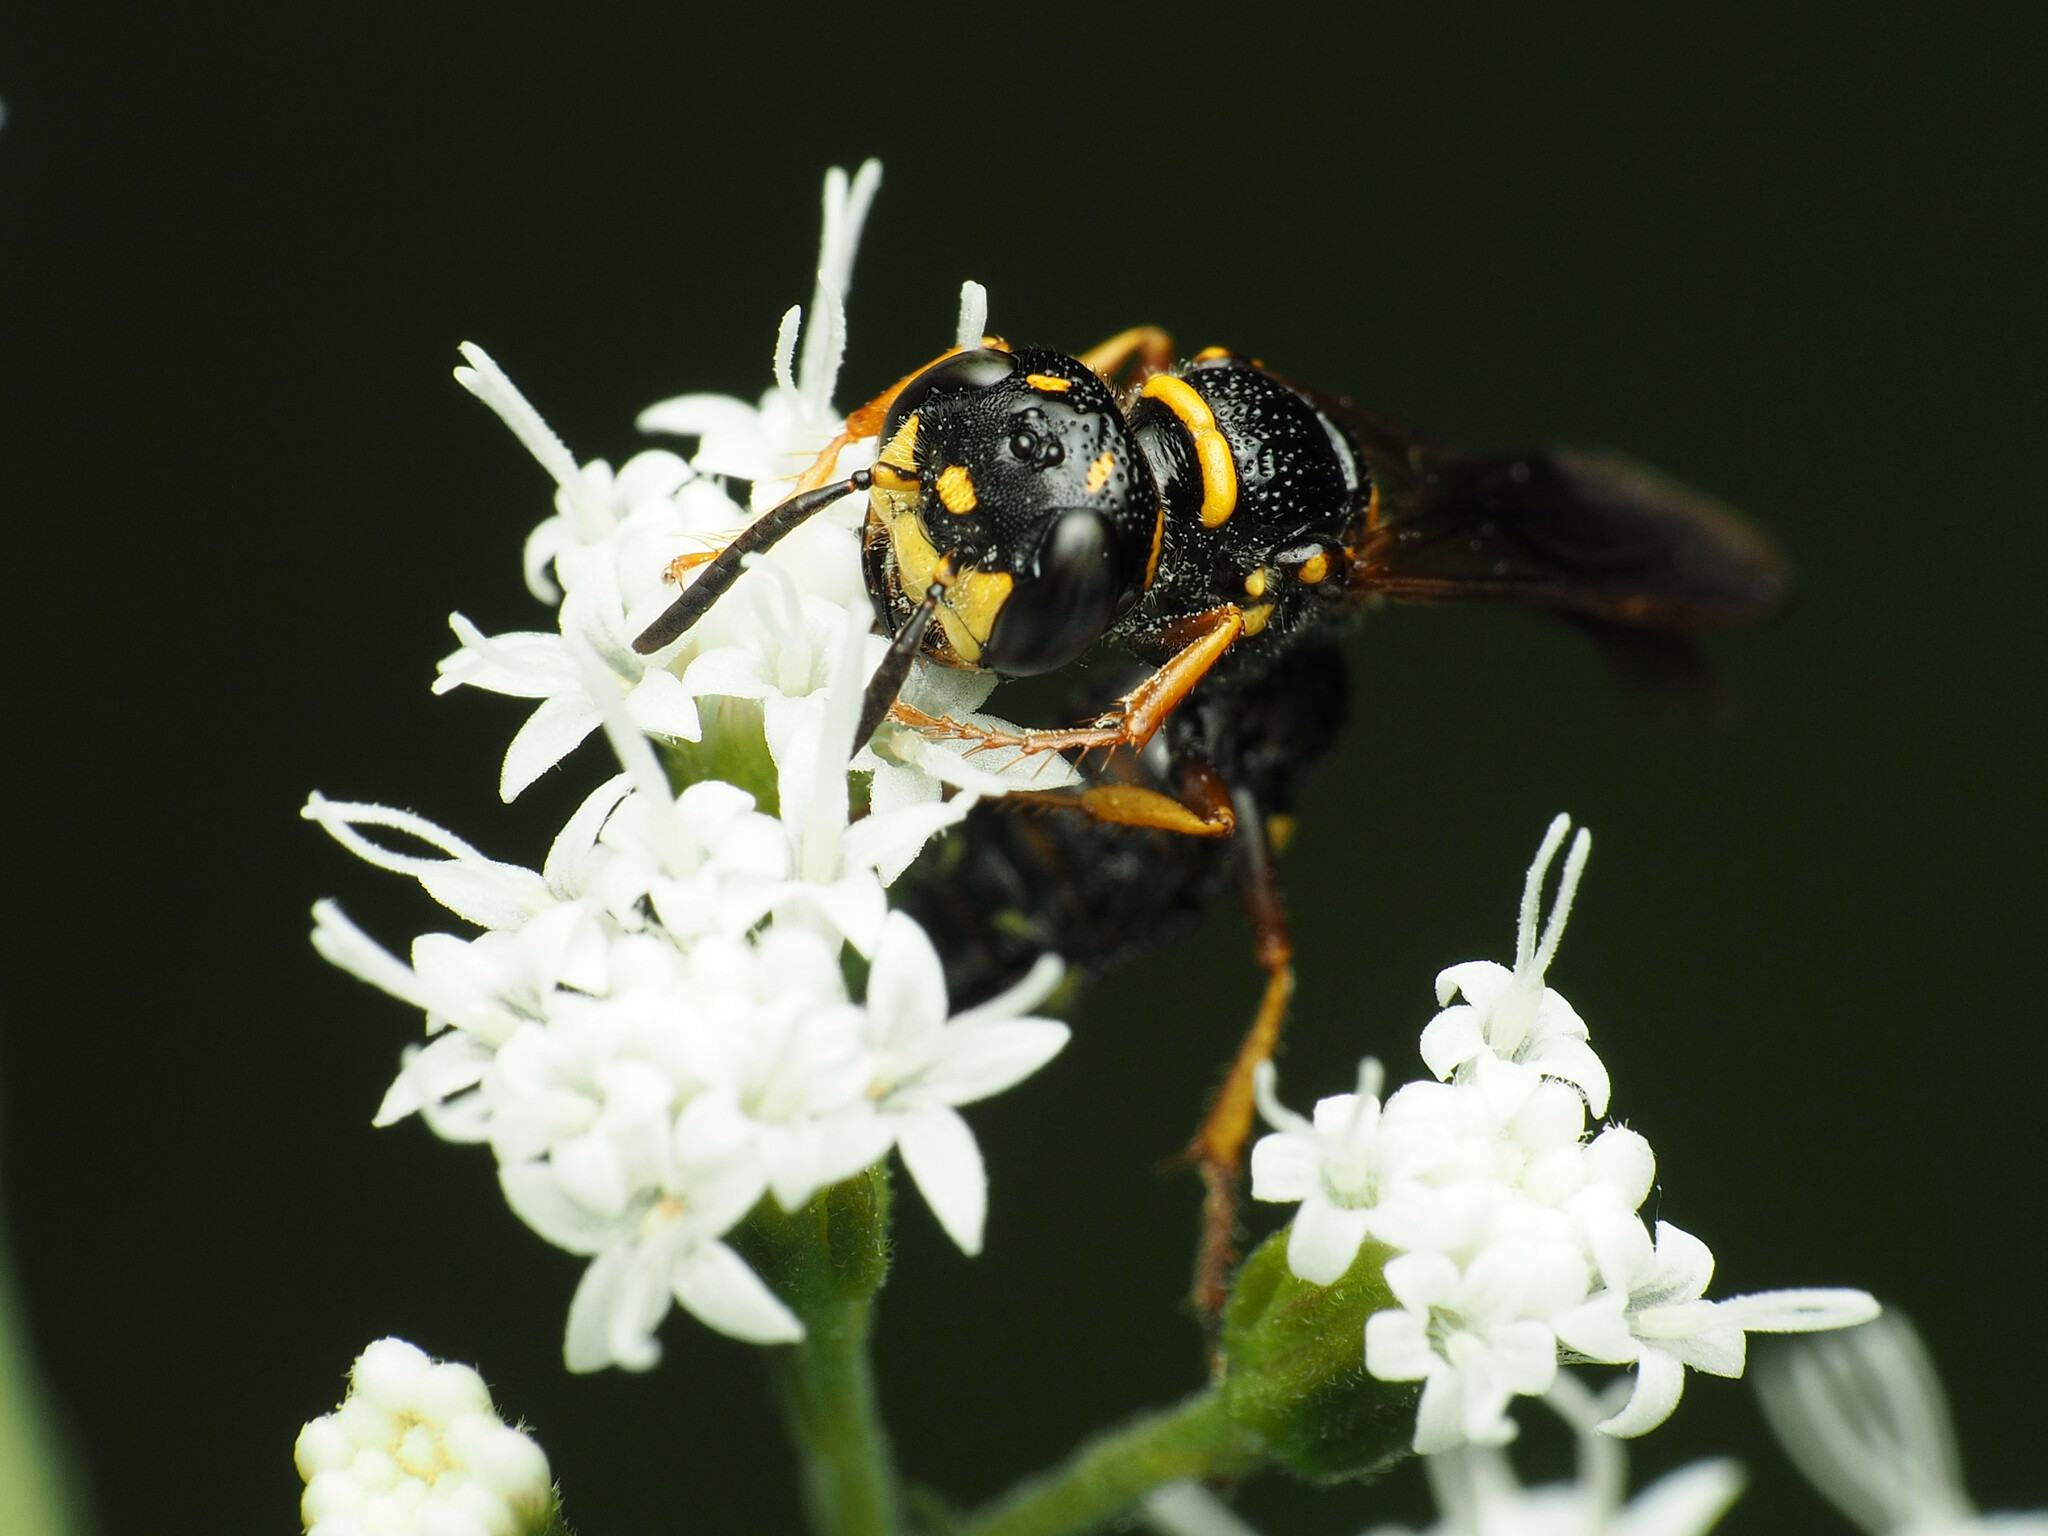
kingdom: Animalia
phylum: Arthropoda
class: Insecta
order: Hymenoptera
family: Crabronidae
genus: Philanthus
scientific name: Philanthus gibbosus
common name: Humped beewolf
